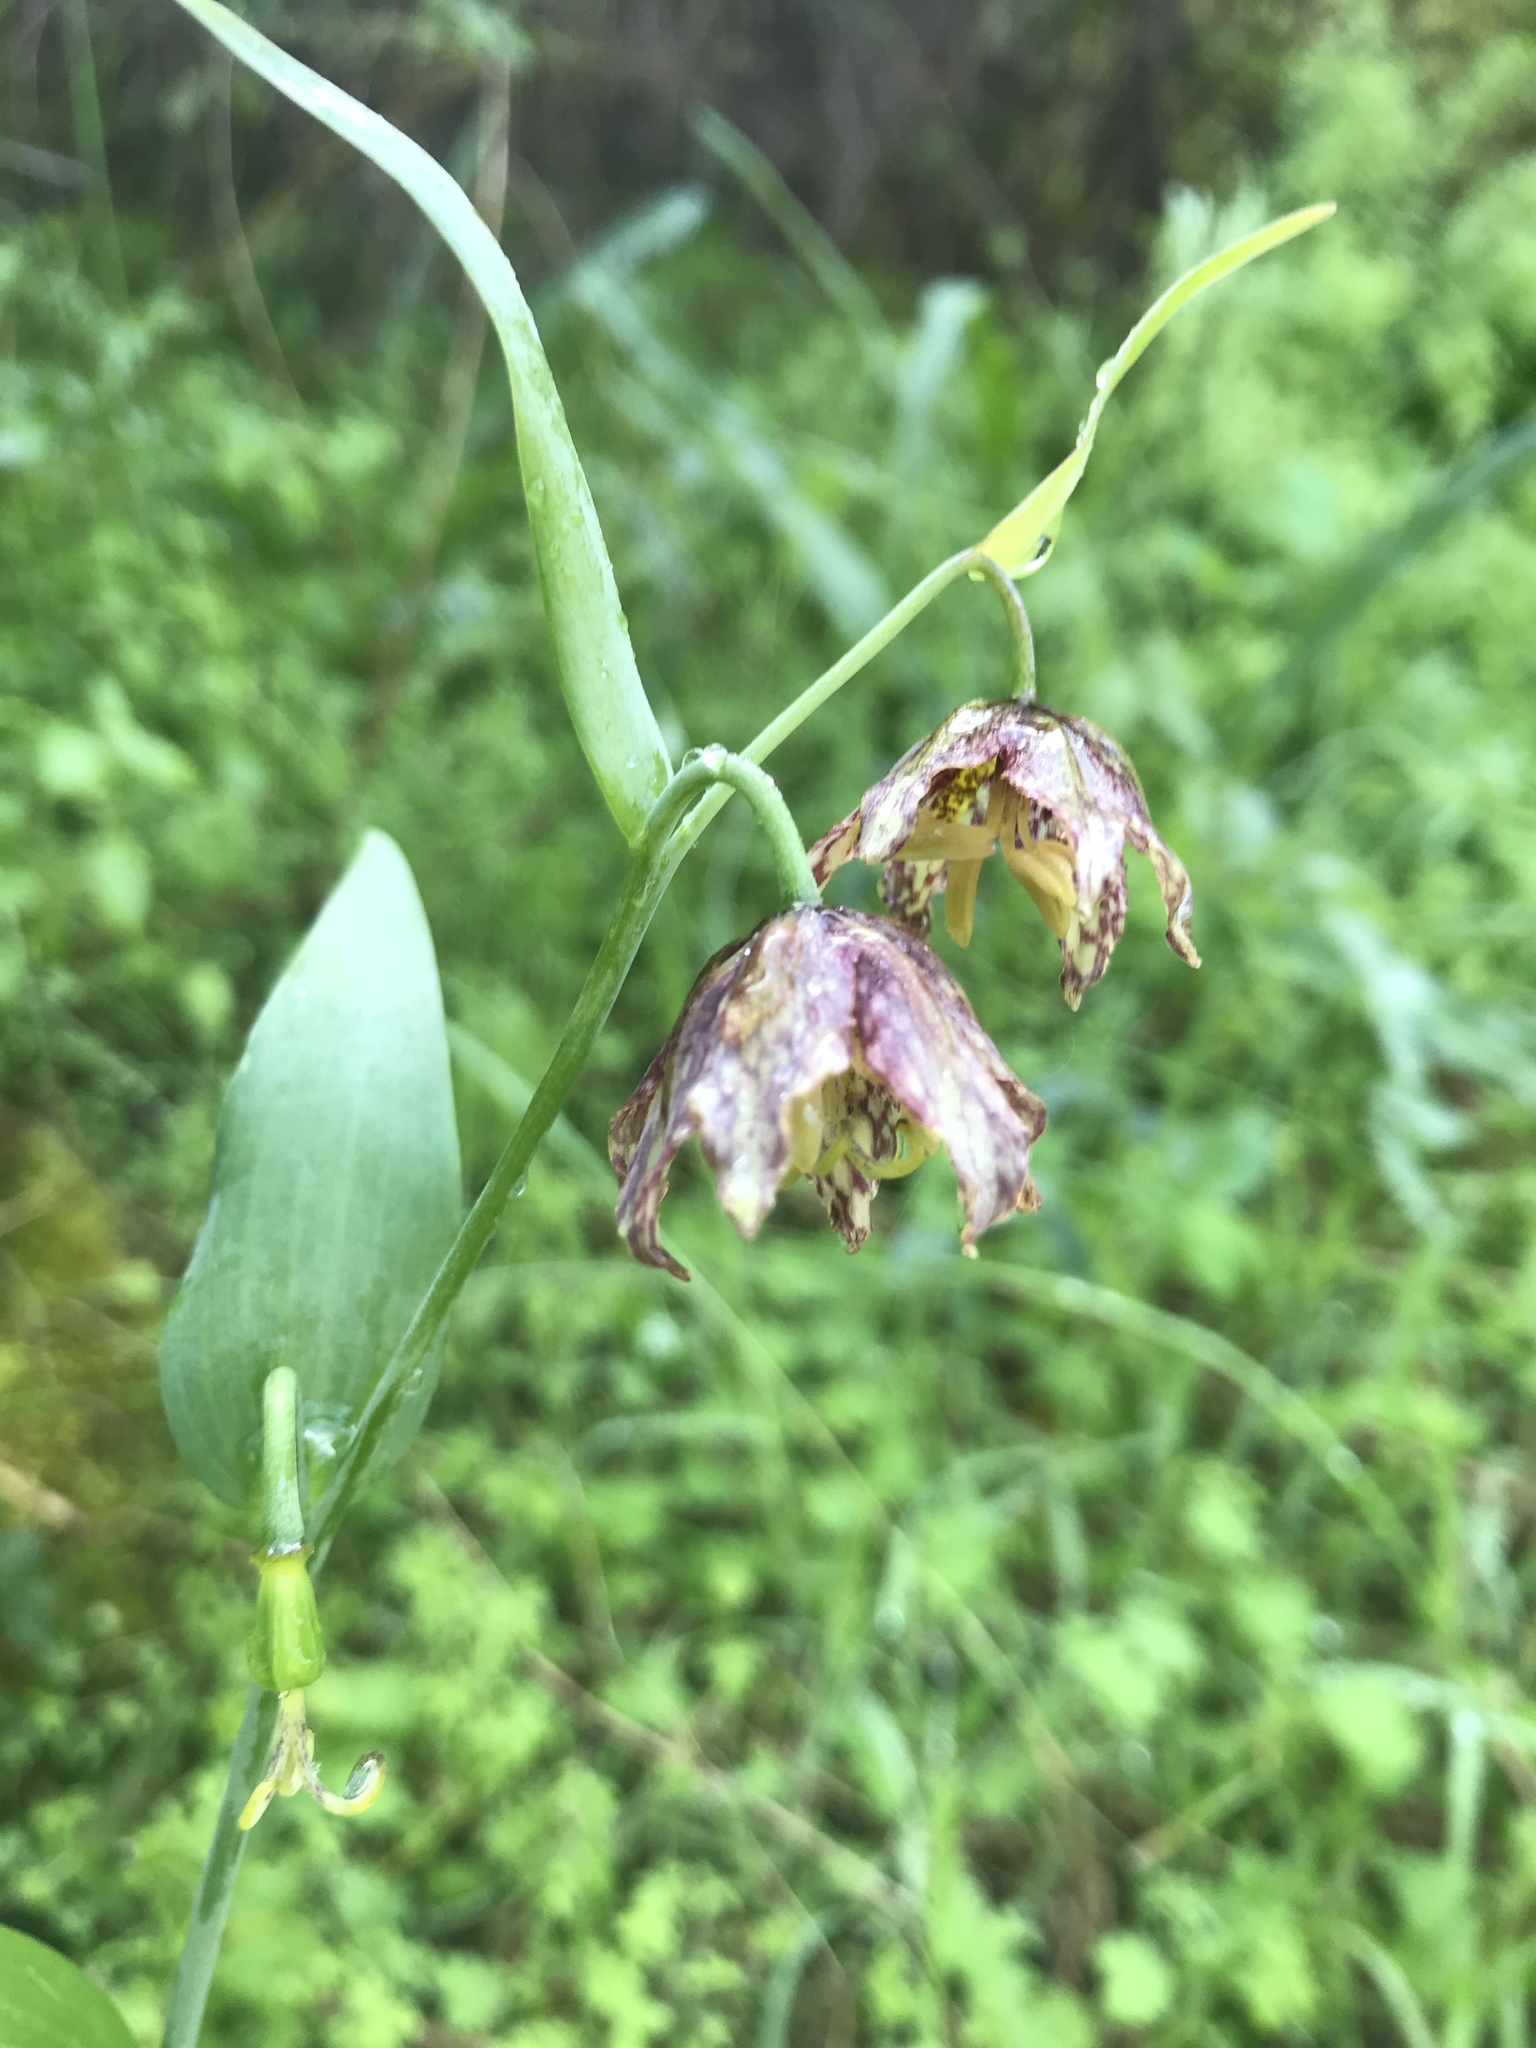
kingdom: Plantae
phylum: Tracheophyta
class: Liliopsida
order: Liliales
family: Liliaceae
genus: Fritillaria
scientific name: Fritillaria affinis
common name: Ojai fritillary
